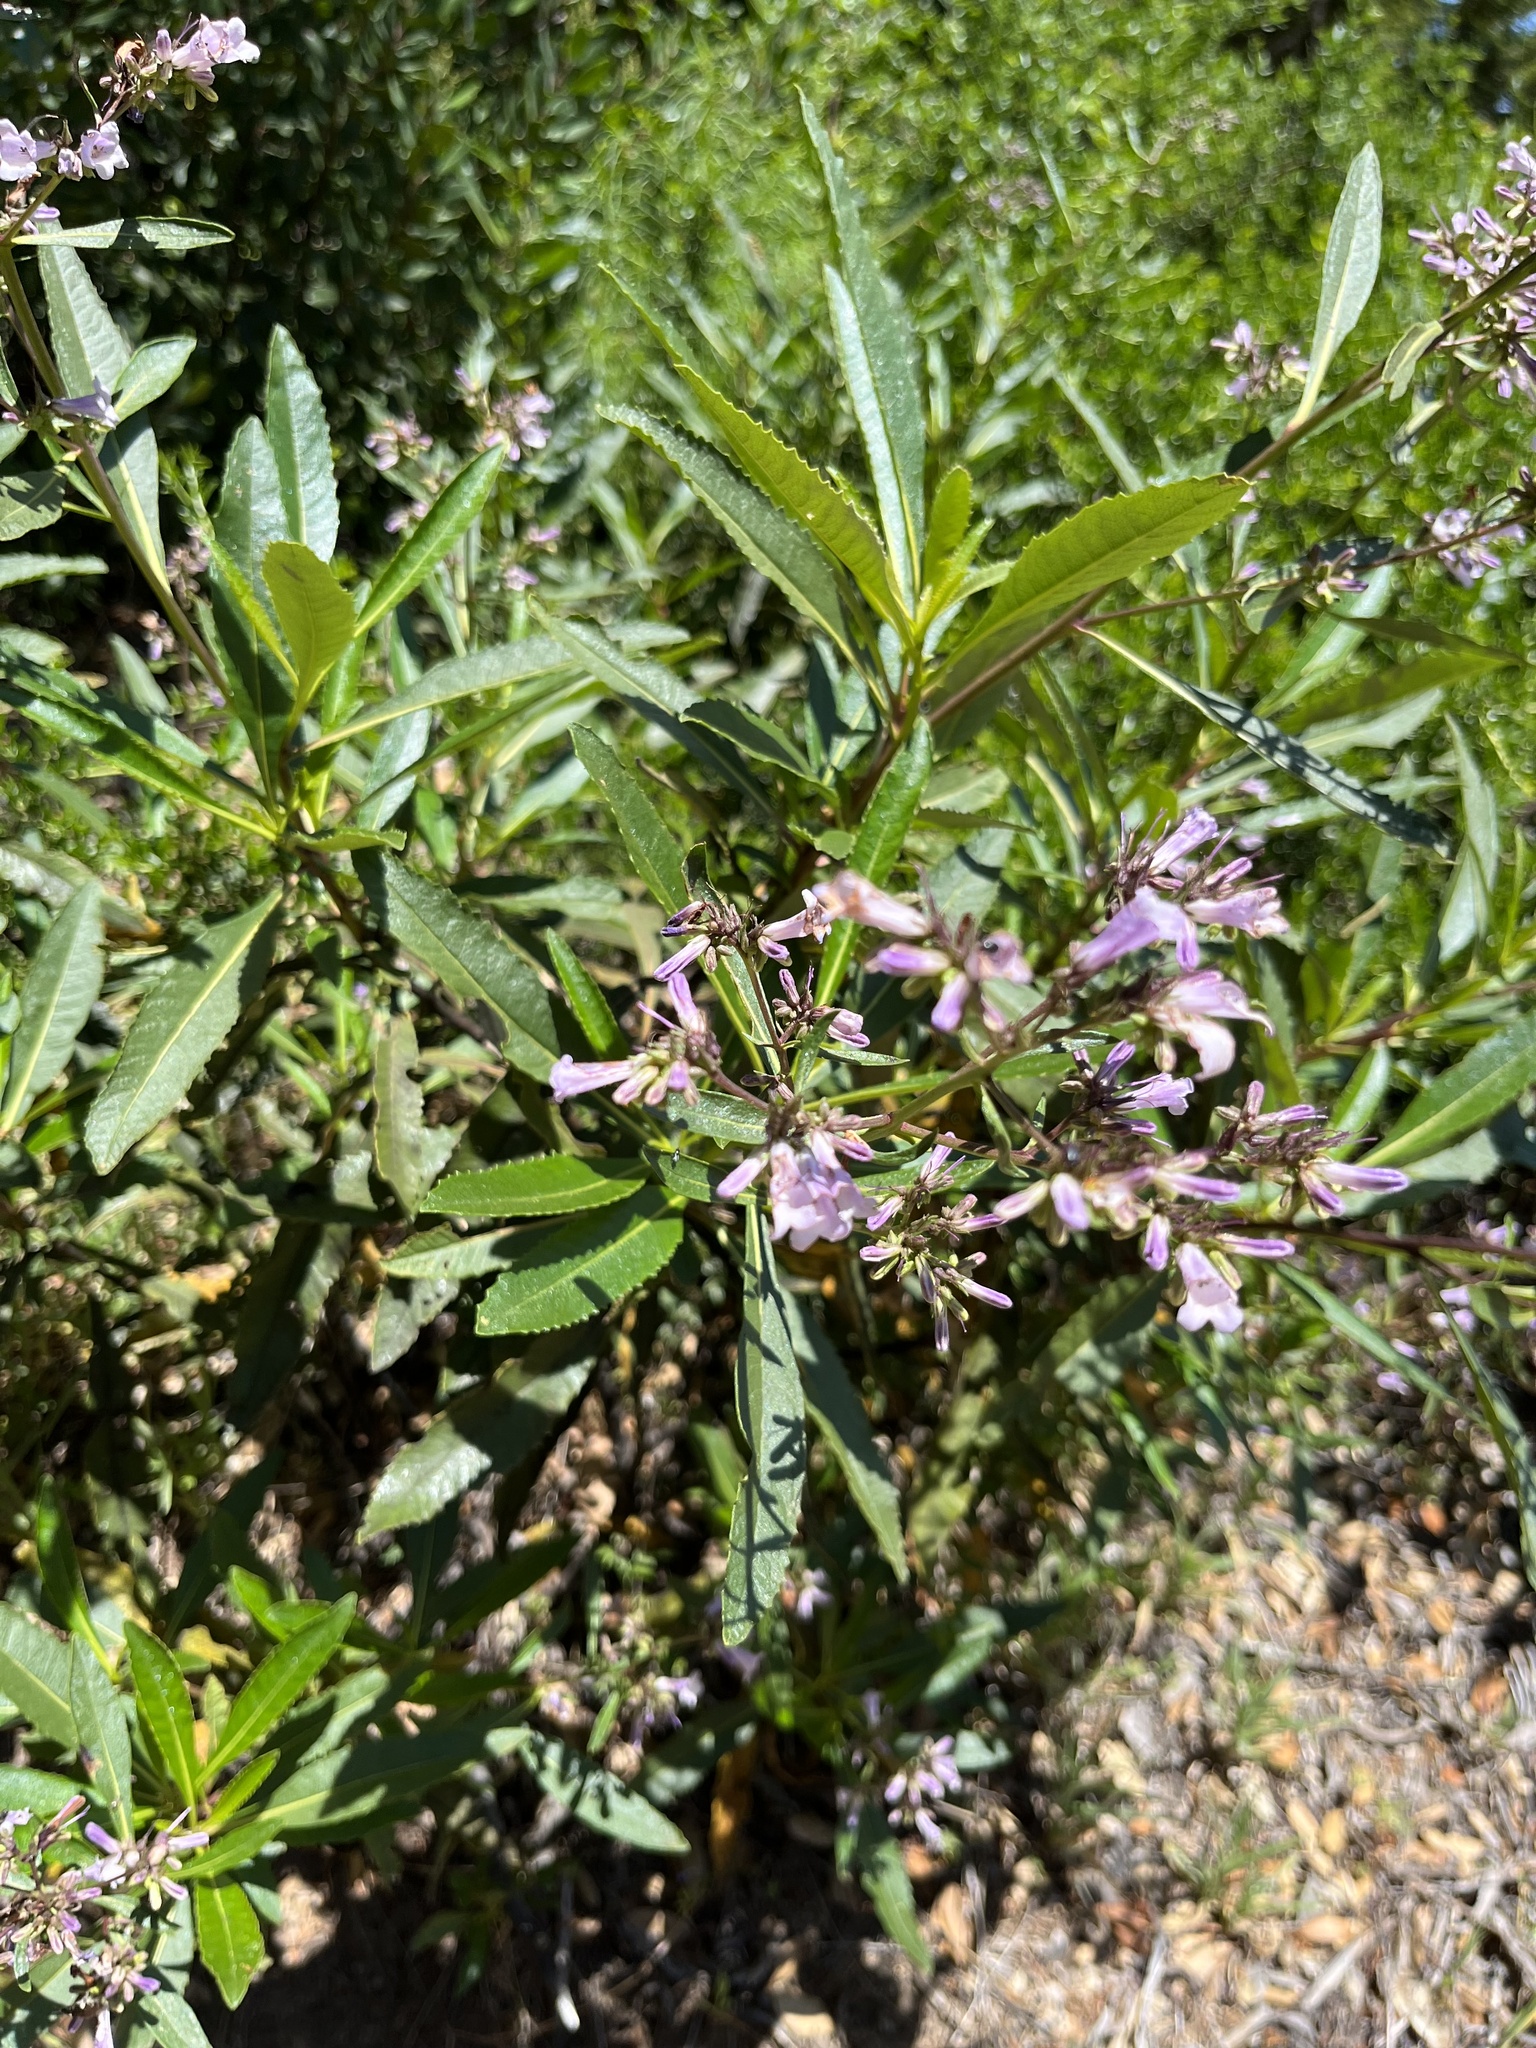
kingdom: Plantae
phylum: Tracheophyta
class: Magnoliopsida
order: Boraginales
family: Namaceae
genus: Eriodictyon
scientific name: Eriodictyon californicum
